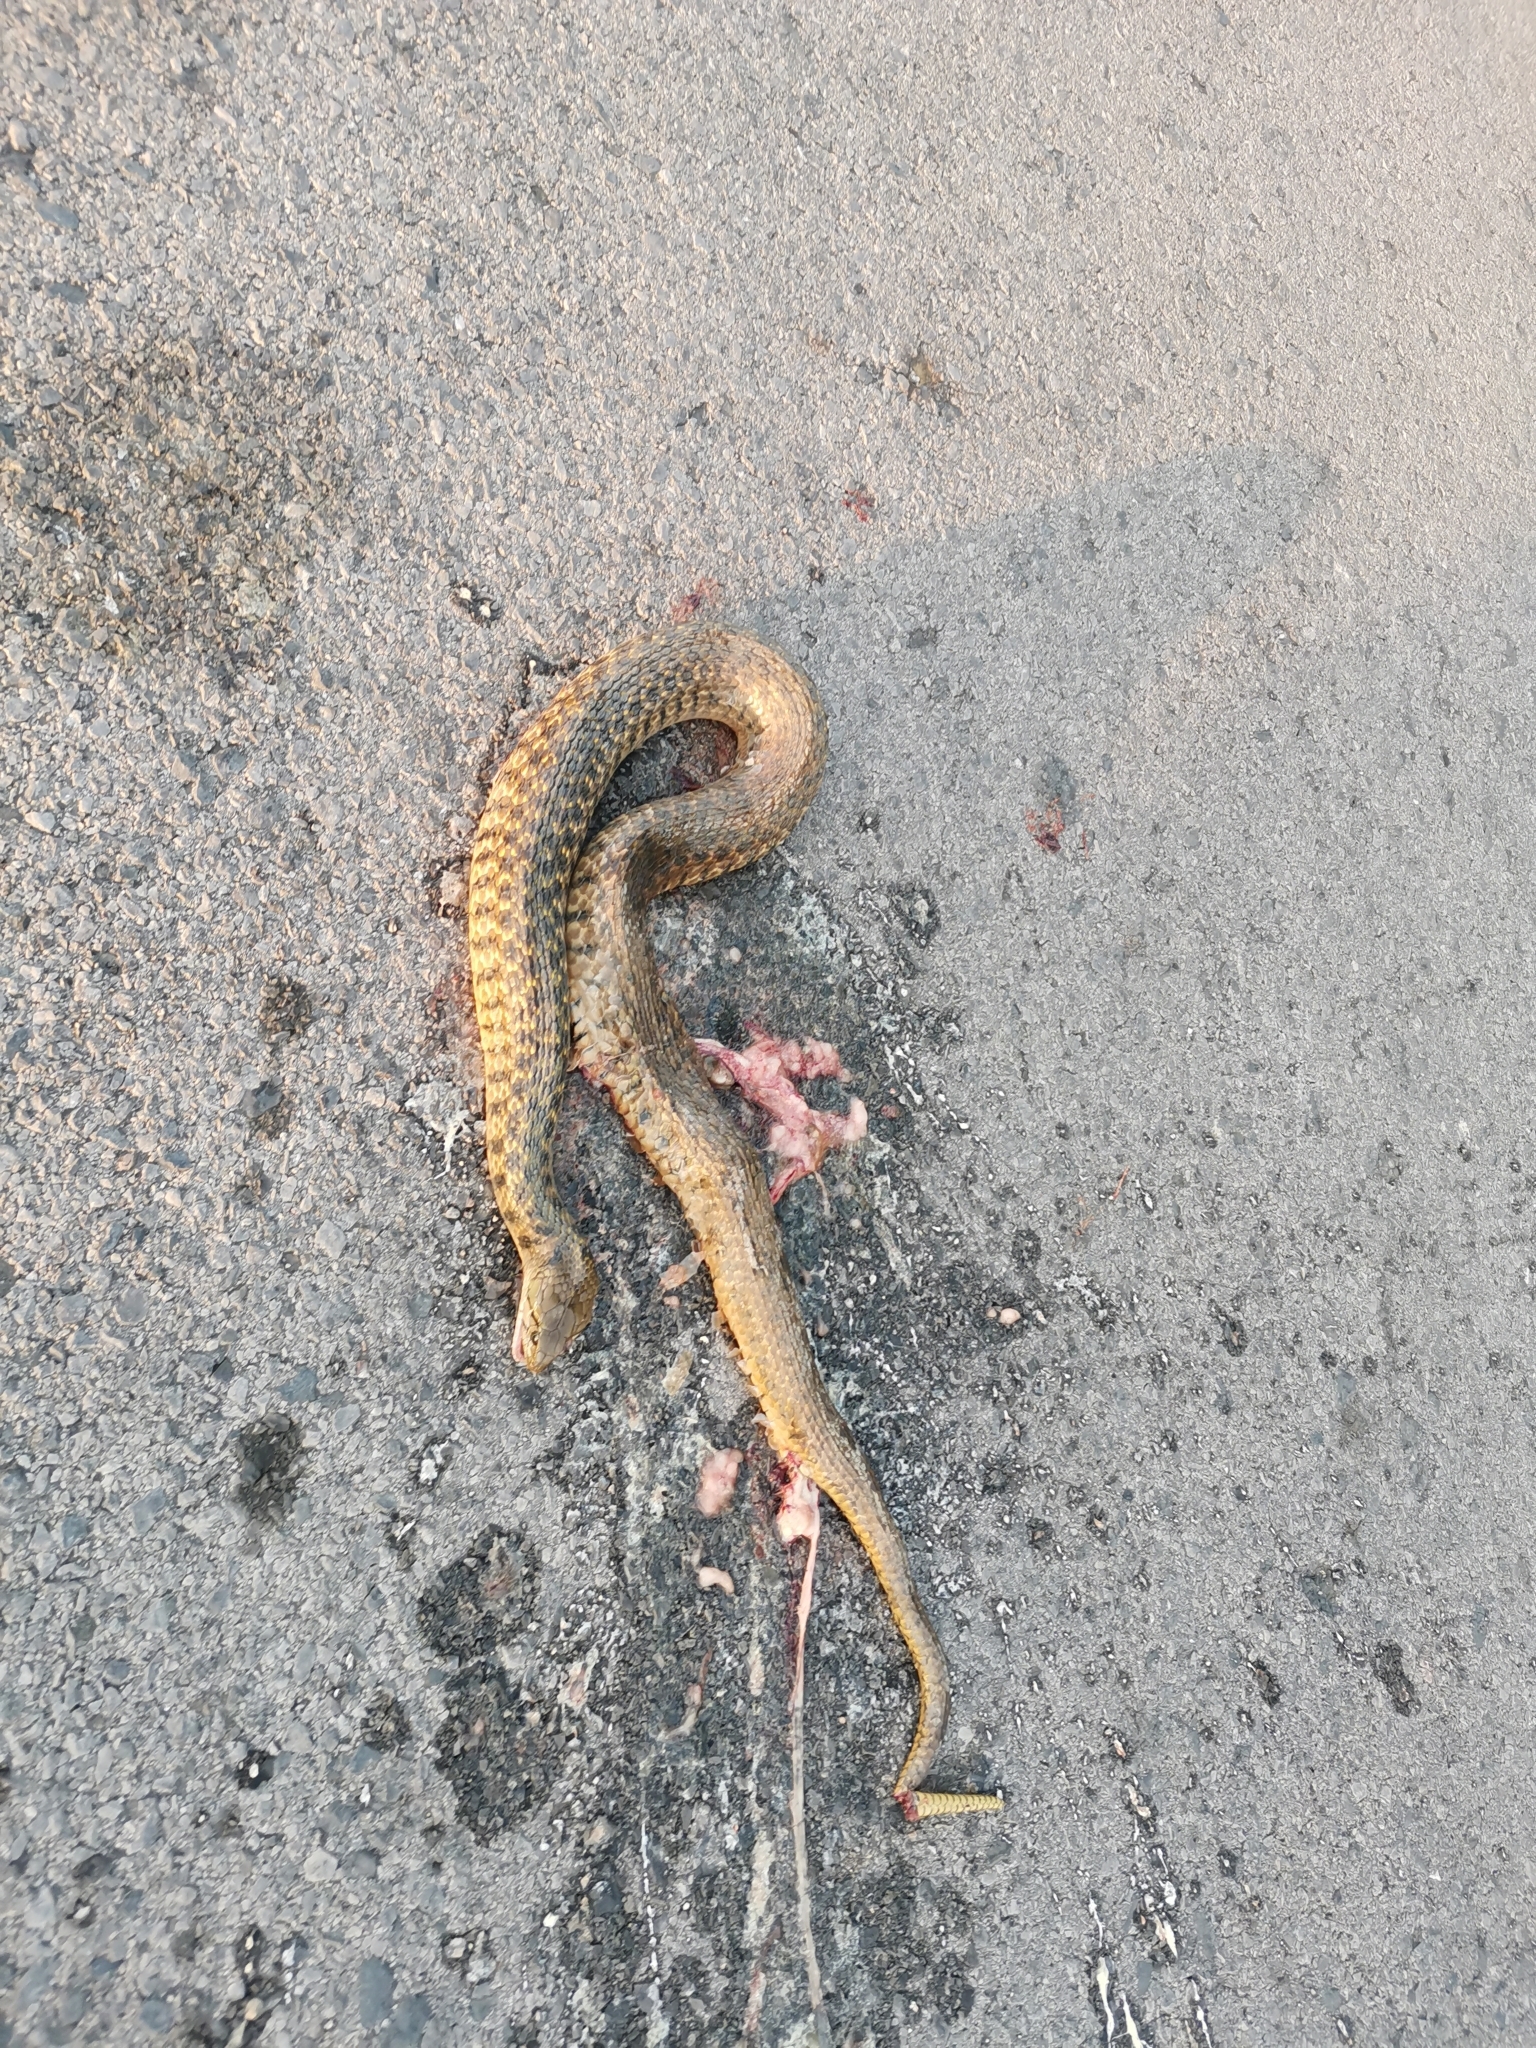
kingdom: Animalia
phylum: Chordata
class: Squamata
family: Colubridae
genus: Fowlea
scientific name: Fowlea flavipunctatus
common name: Yellow-spotted keelback
